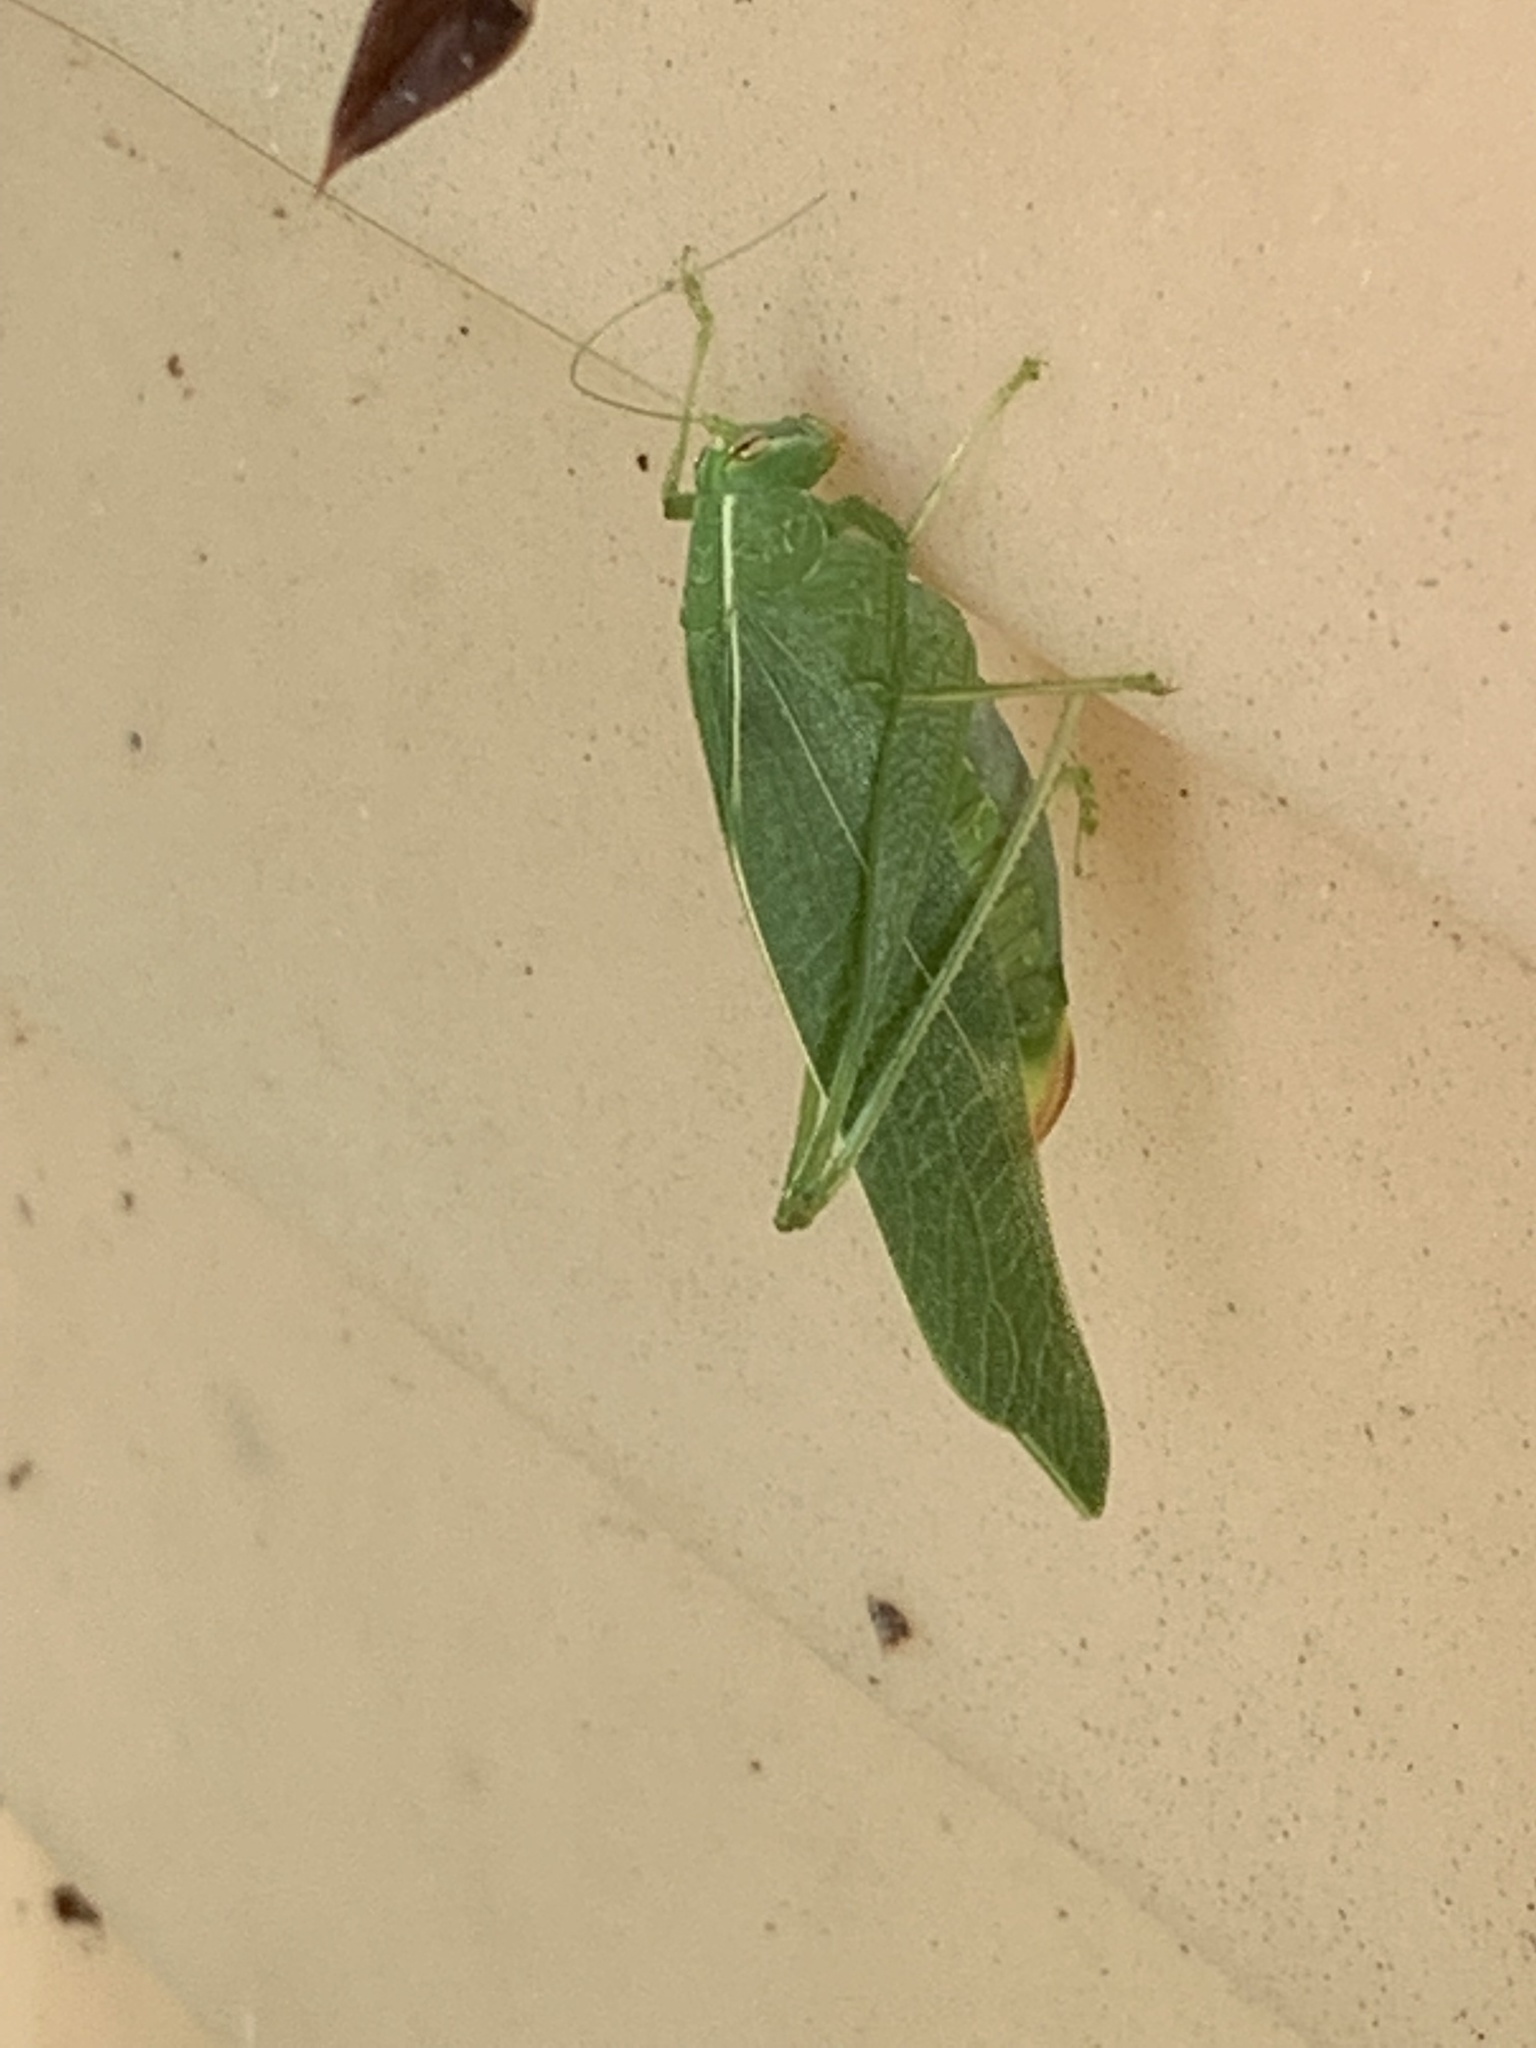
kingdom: Animalia
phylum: Arthropoda
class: Insecta
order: Orthoptera
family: Tettigoniidae
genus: Montezumina
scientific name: Montezumina modesta
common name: Modest katydid
